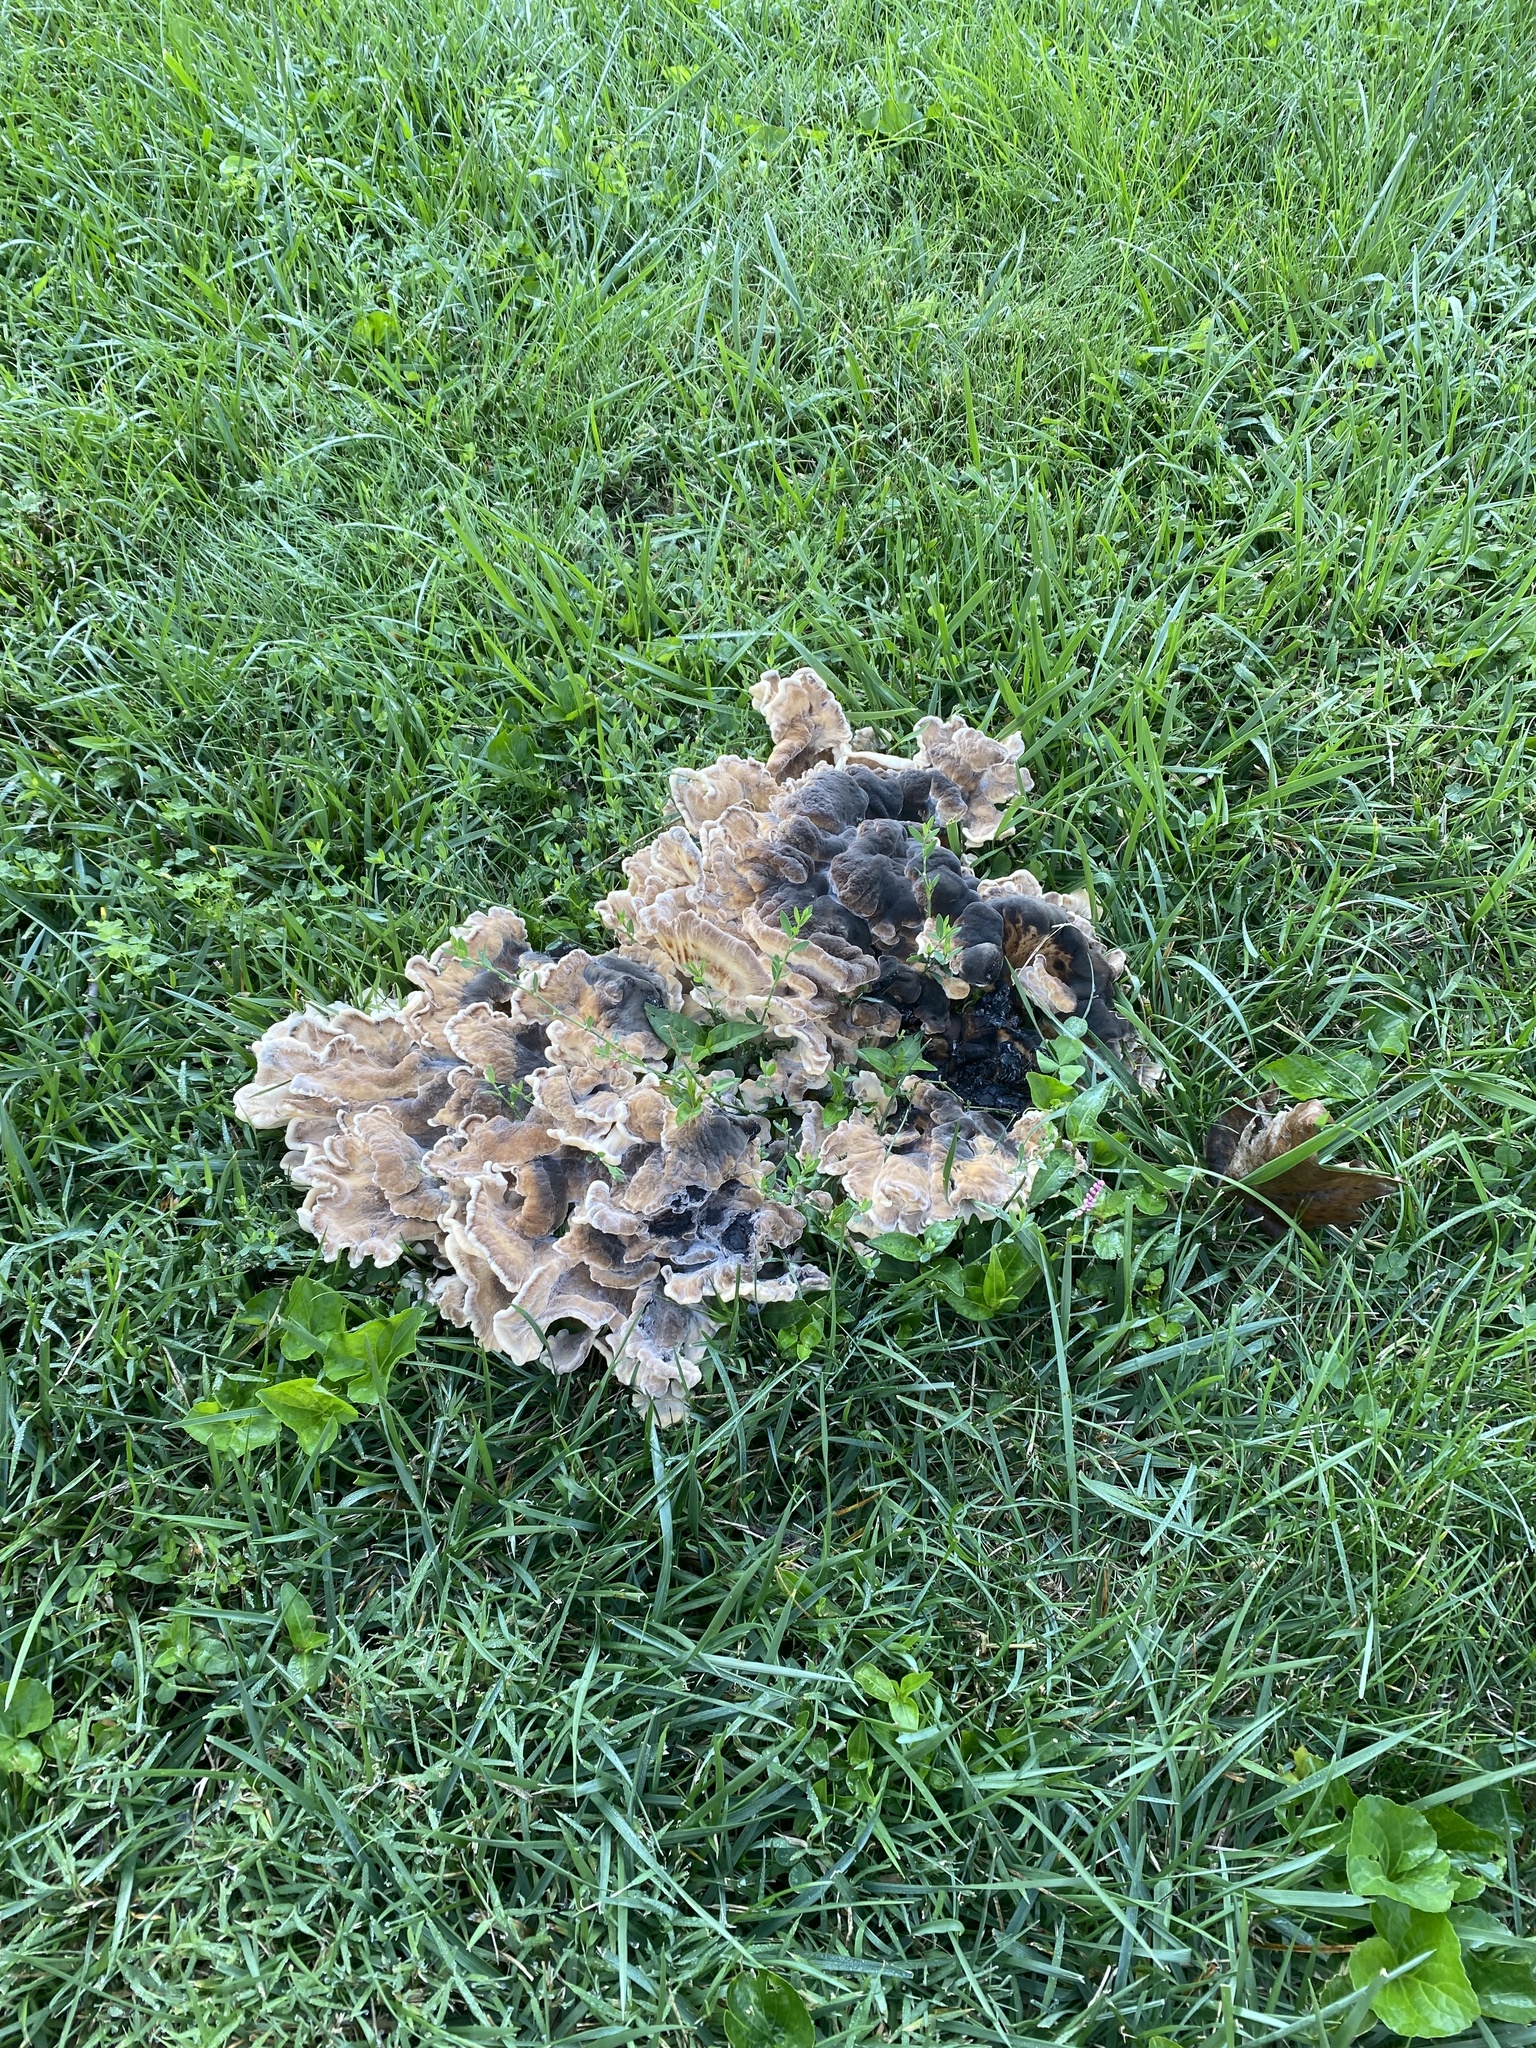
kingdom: Fungi
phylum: Basidiomycota
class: Agaricomycetes
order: Polyporales
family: Meripilaceae
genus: Meripilus
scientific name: Meripilus sumstinei
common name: Black-staining polypore
